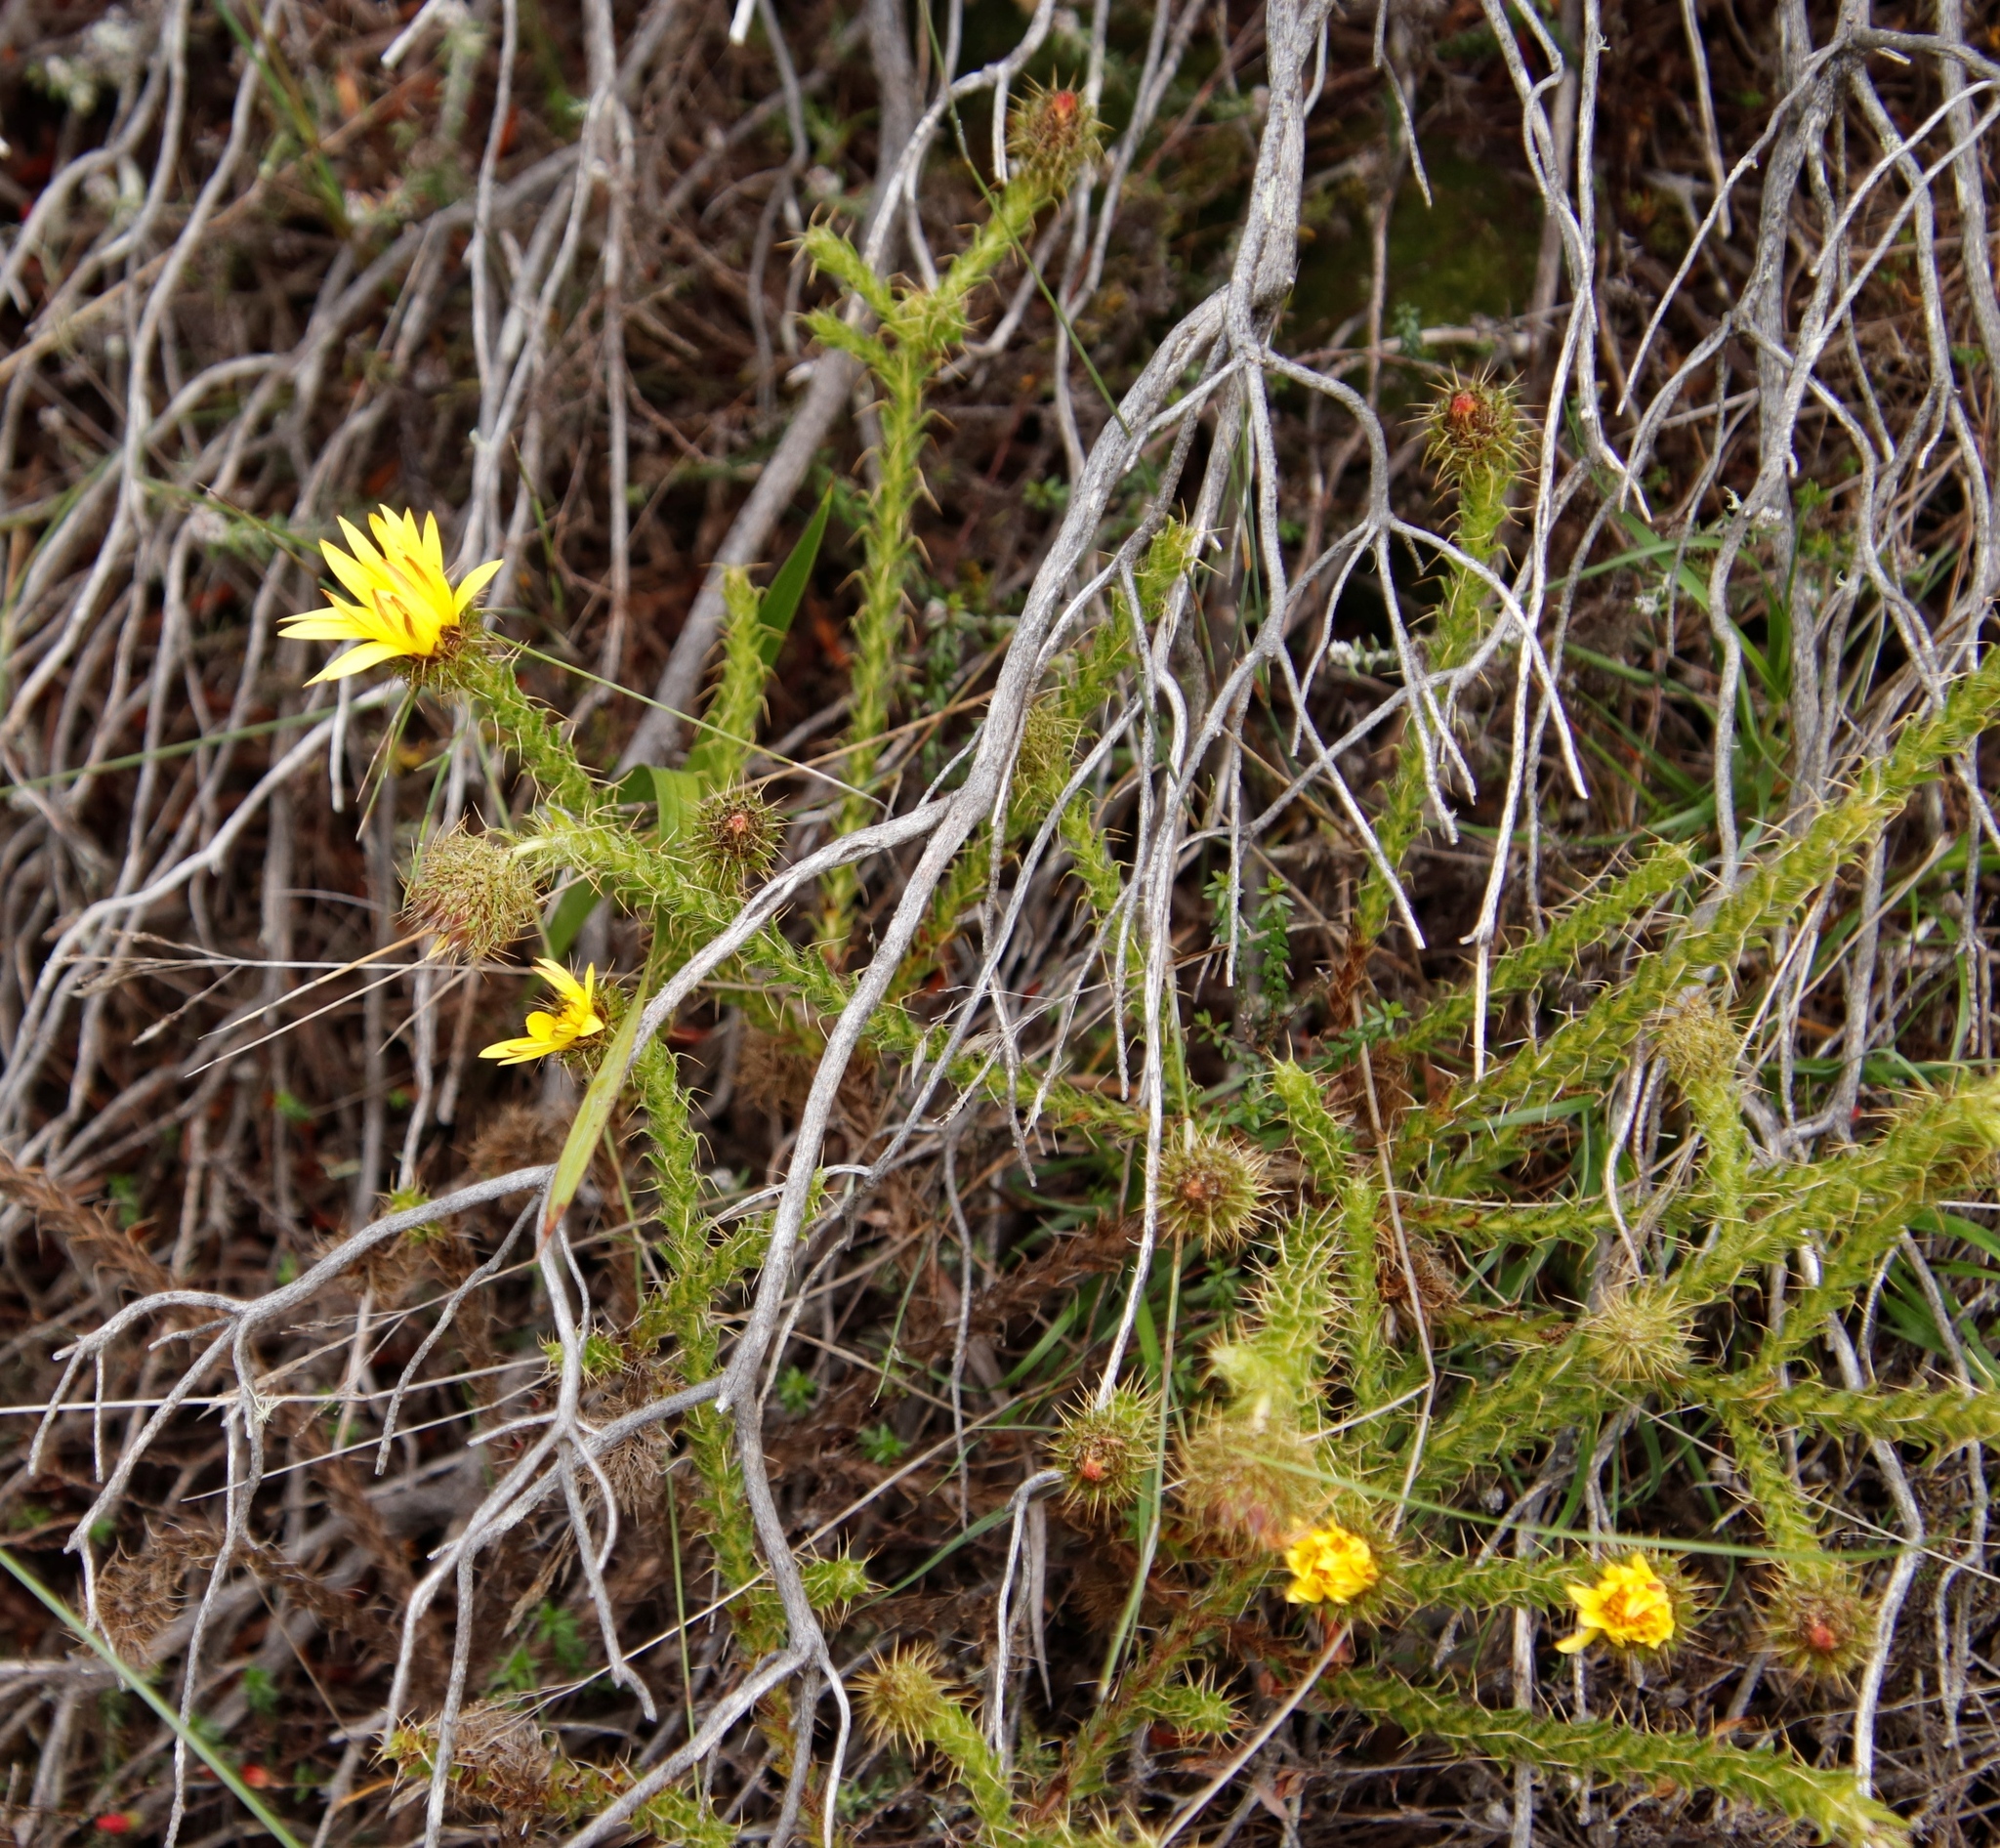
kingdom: Plantae
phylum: Tracheophyta
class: Magnoliopsida
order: Asterales
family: Asteraceae
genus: Cullumia
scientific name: Cullumia reticulata
